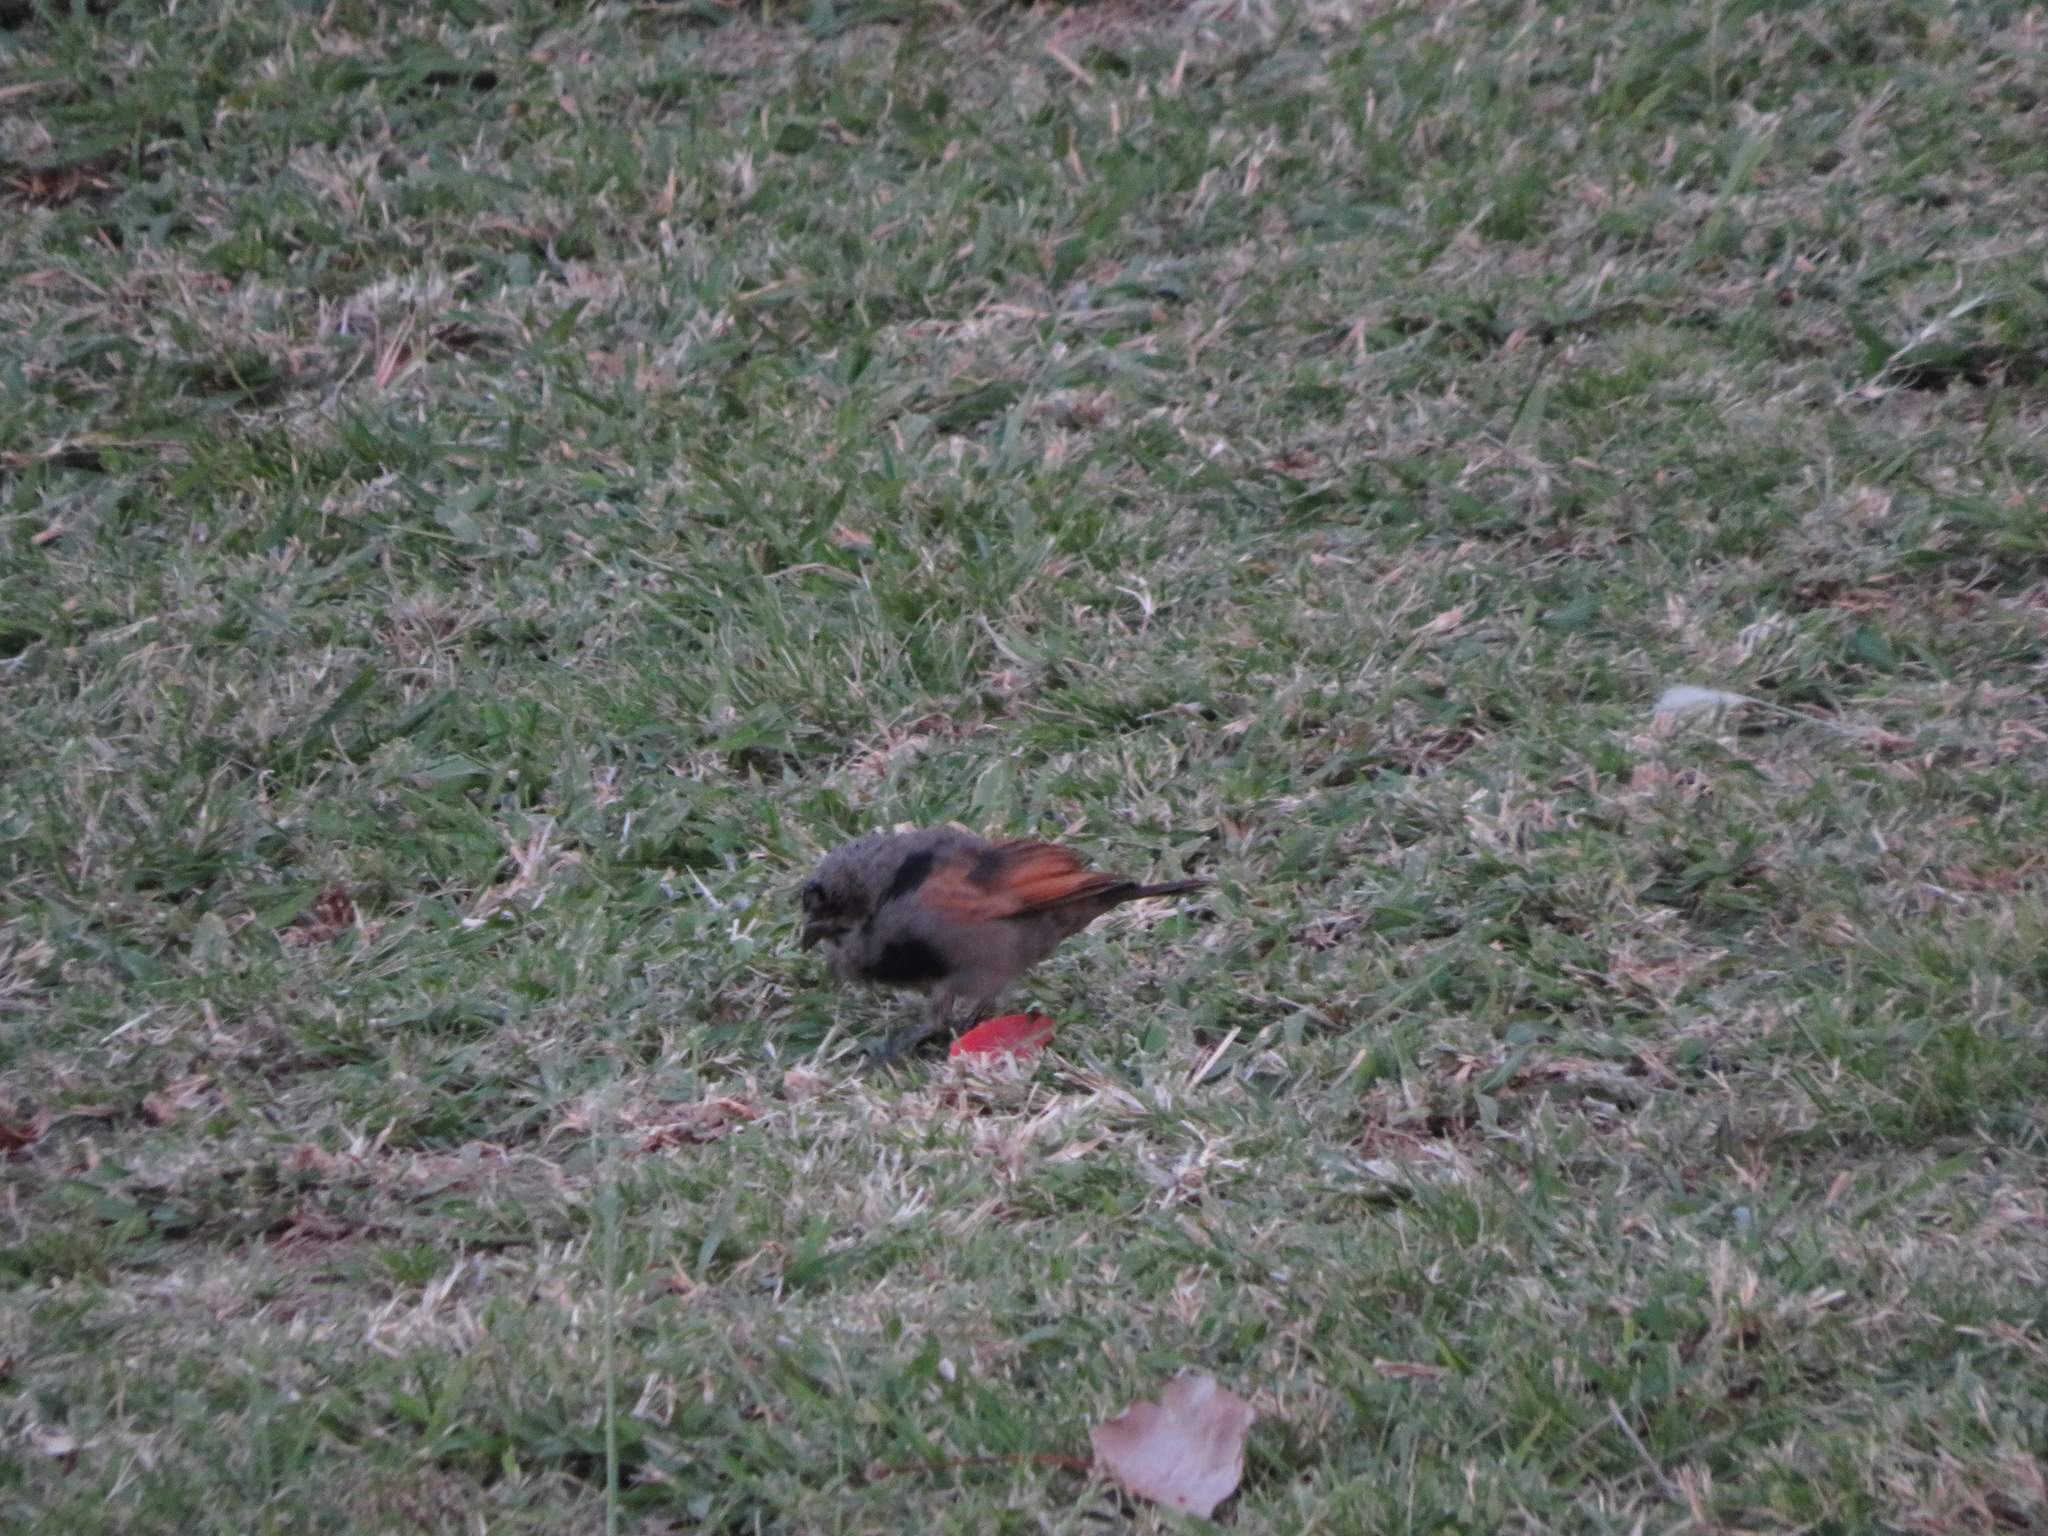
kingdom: Animalia
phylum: Chordata
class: Aves
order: Passeriformes
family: Icteridae
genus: Molothrus
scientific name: Molothrus rufoaxillaris
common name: Screaming cowbird
